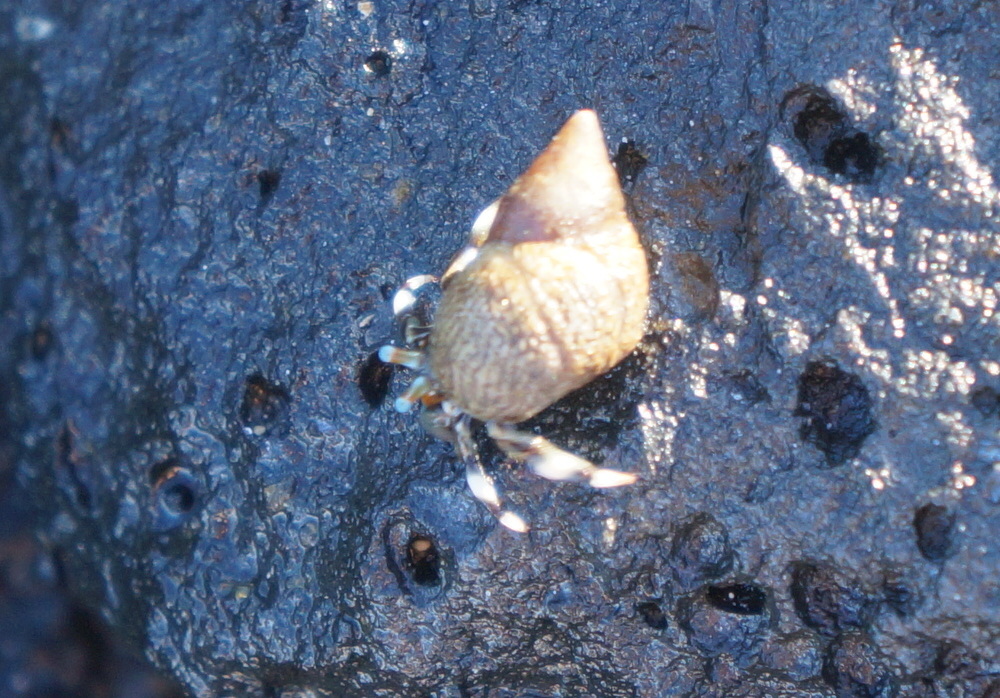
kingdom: Animalia
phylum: Arthropoda
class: Malacostraca
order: Decapoda
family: Diogenidae
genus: Calcinus
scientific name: Calcinus seurati
